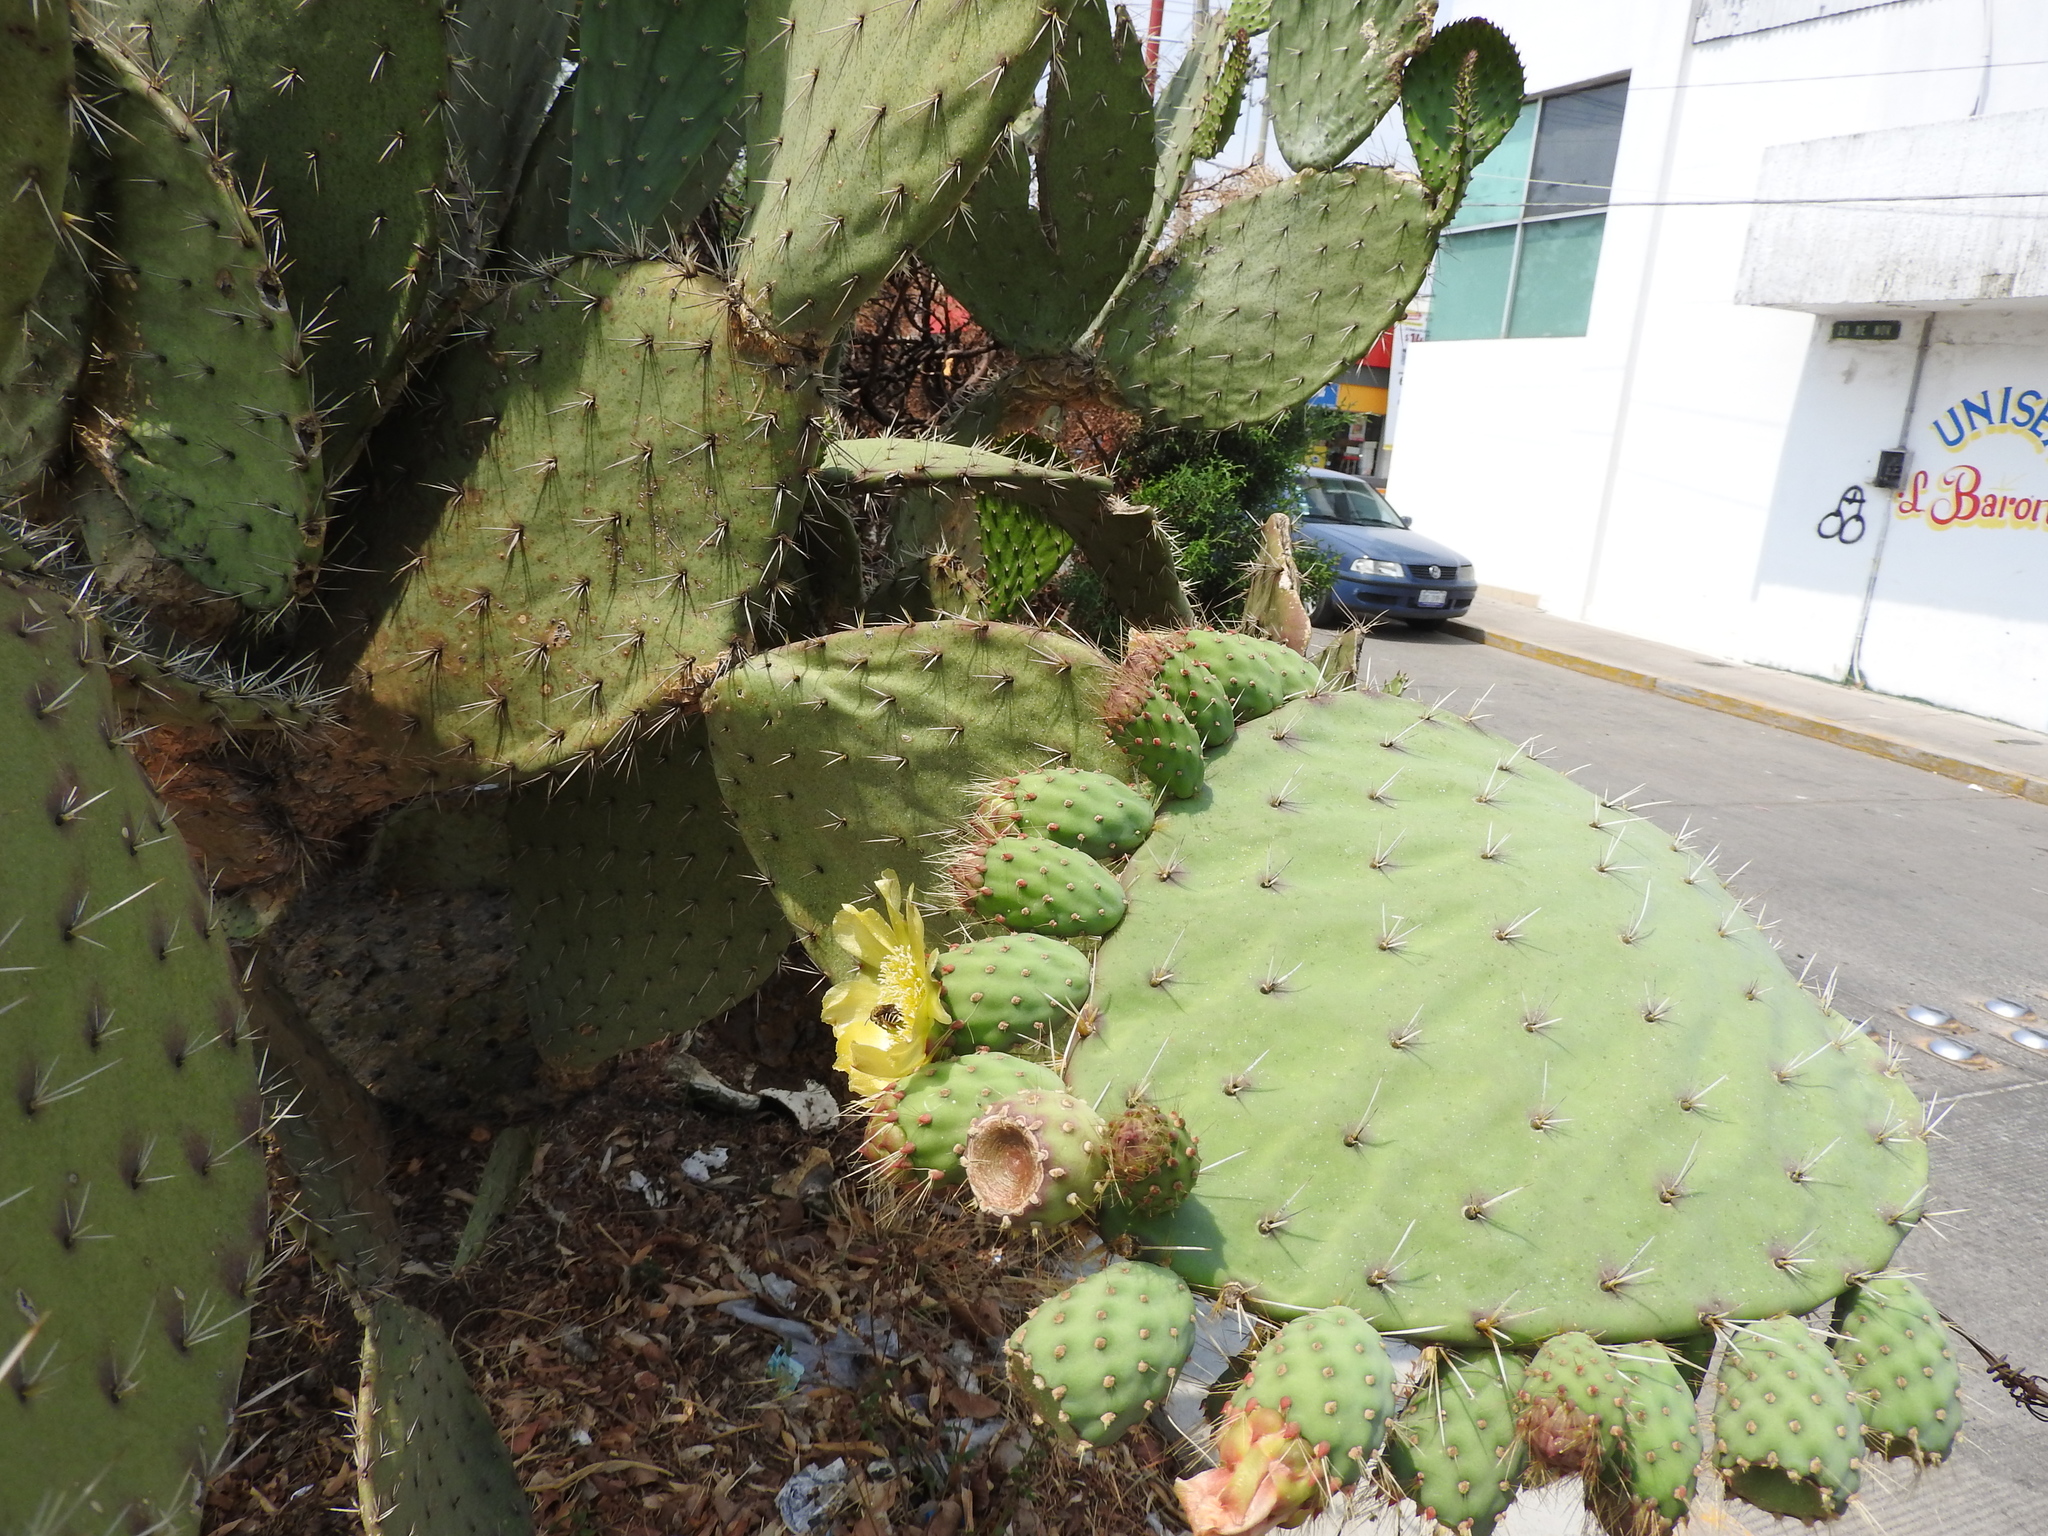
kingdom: Plantae
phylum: Tracheophyta
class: Magnoliopsida
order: Caryophyllales
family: Cactaceae
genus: Opuntia
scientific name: Opuntia lasiacantha
